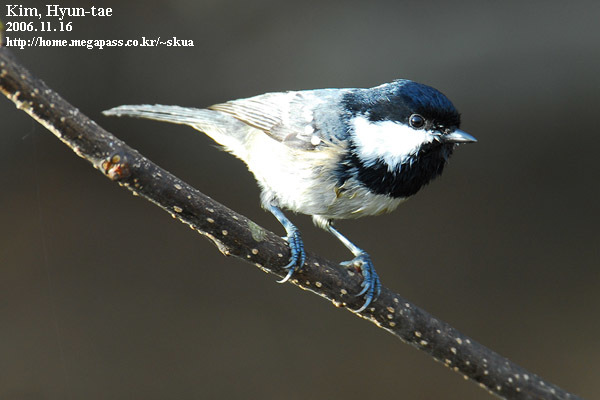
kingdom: Animalia
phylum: Chordata
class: Aves
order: Passeriformes
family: Paridae
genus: Periparus
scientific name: Periparus ater
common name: Coal tit
